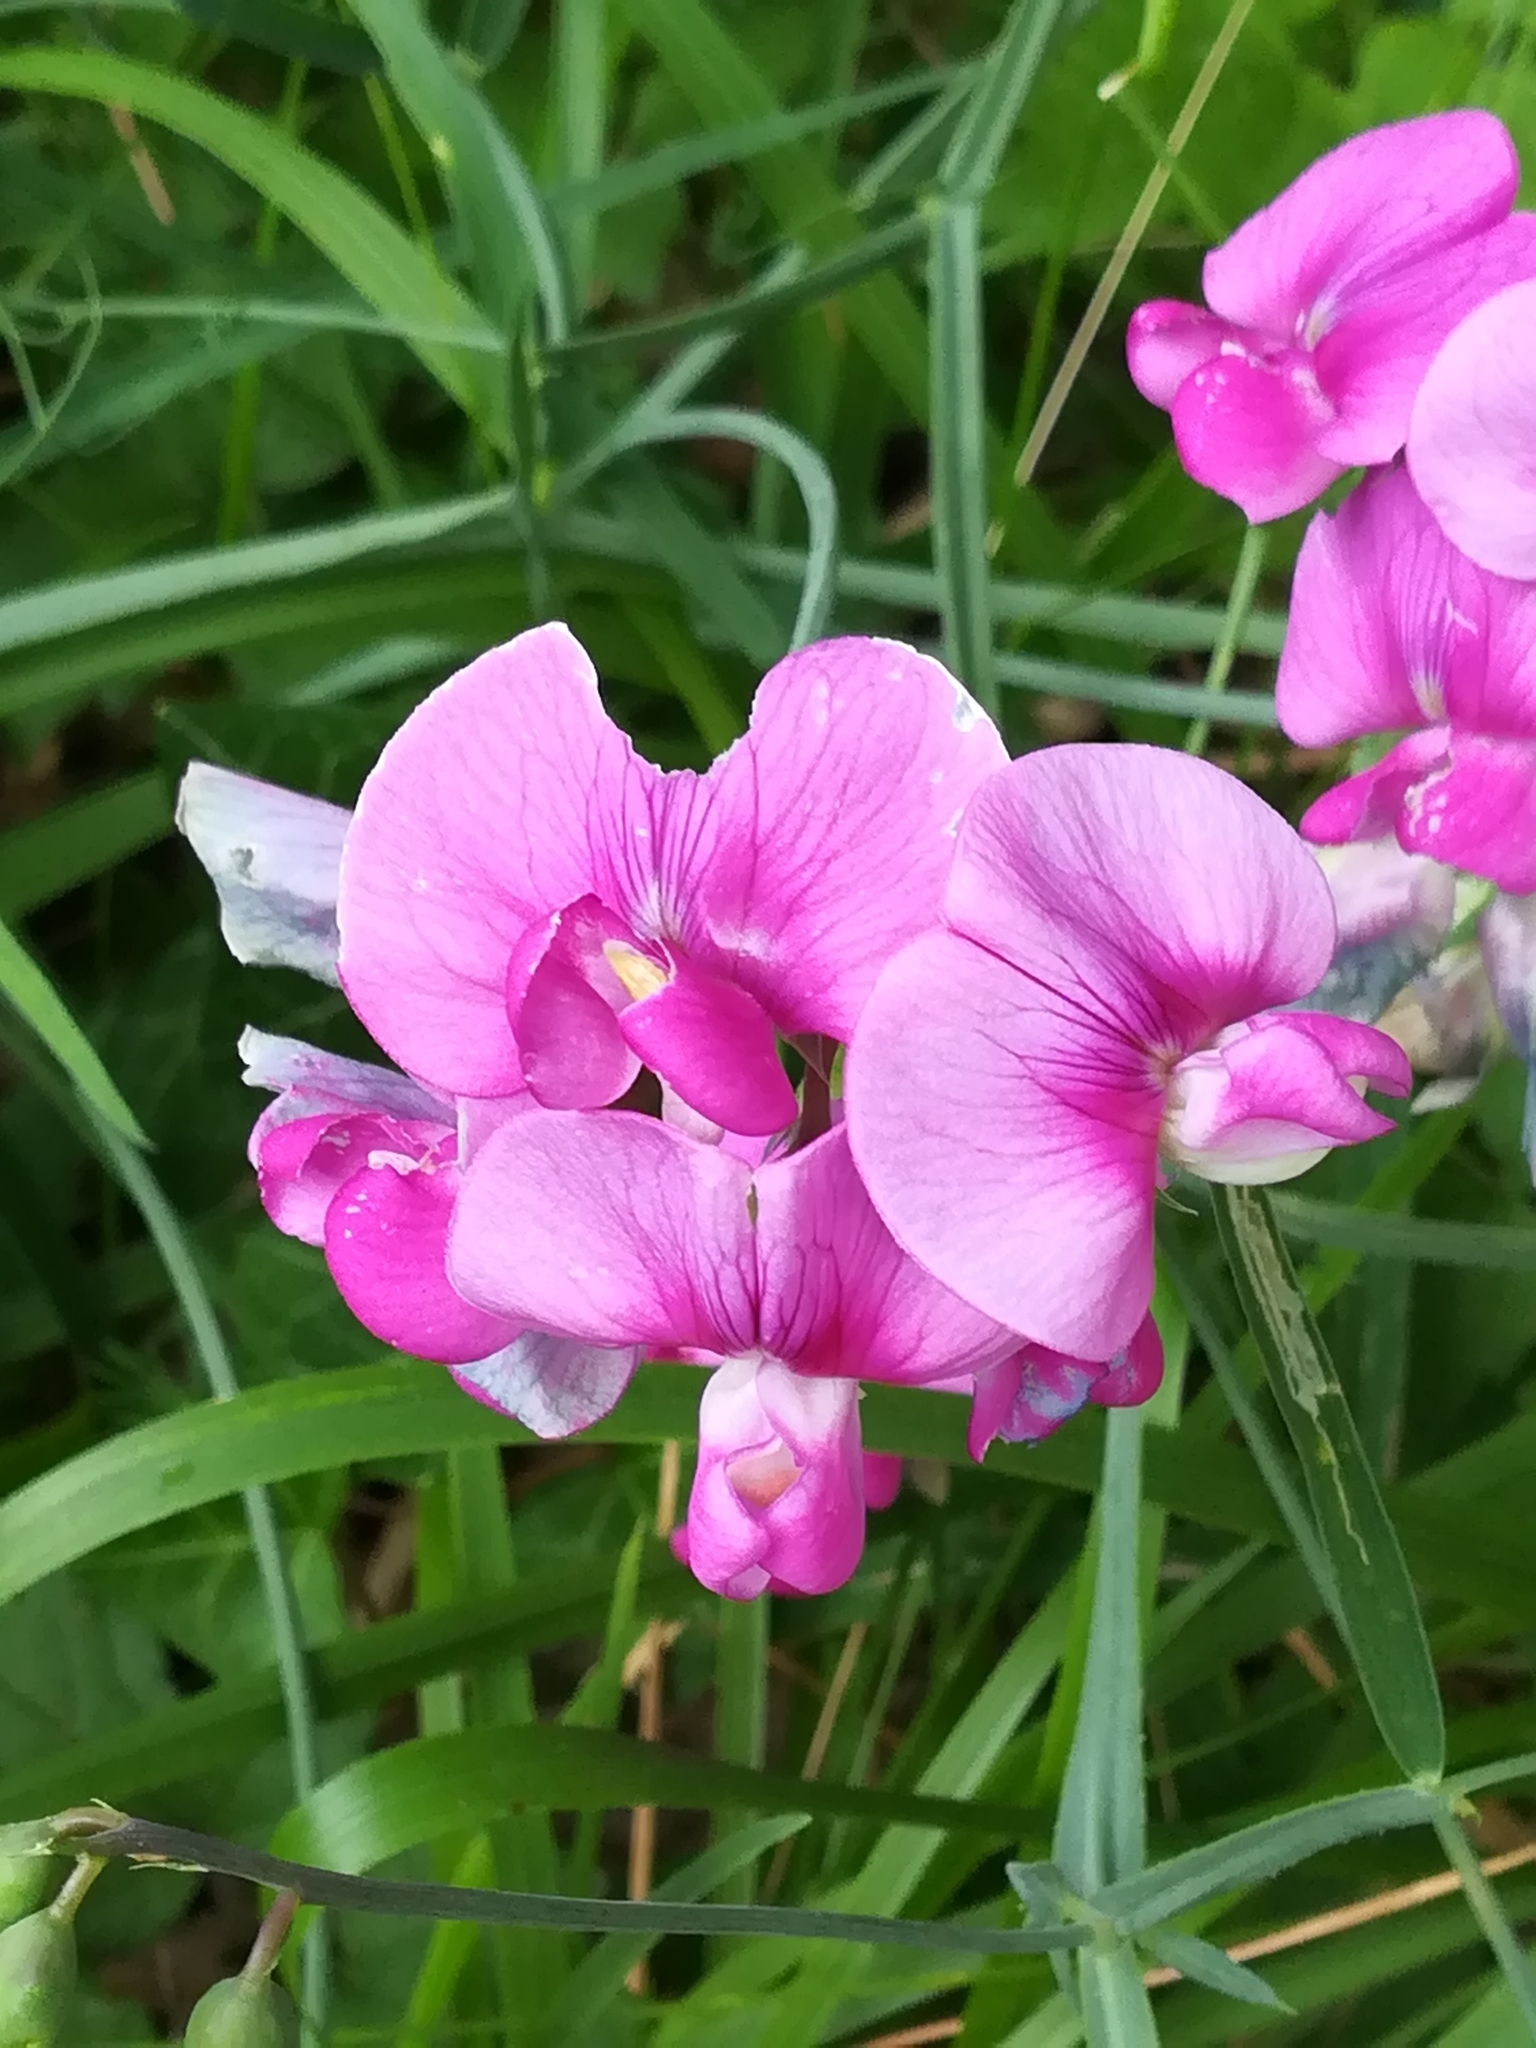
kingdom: Plantae
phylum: Tracheophyta
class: Magnoliopsida
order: Fabales
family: Fabaceae
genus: Lathyrus
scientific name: Lathyrus sylvestris
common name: Flat pea
